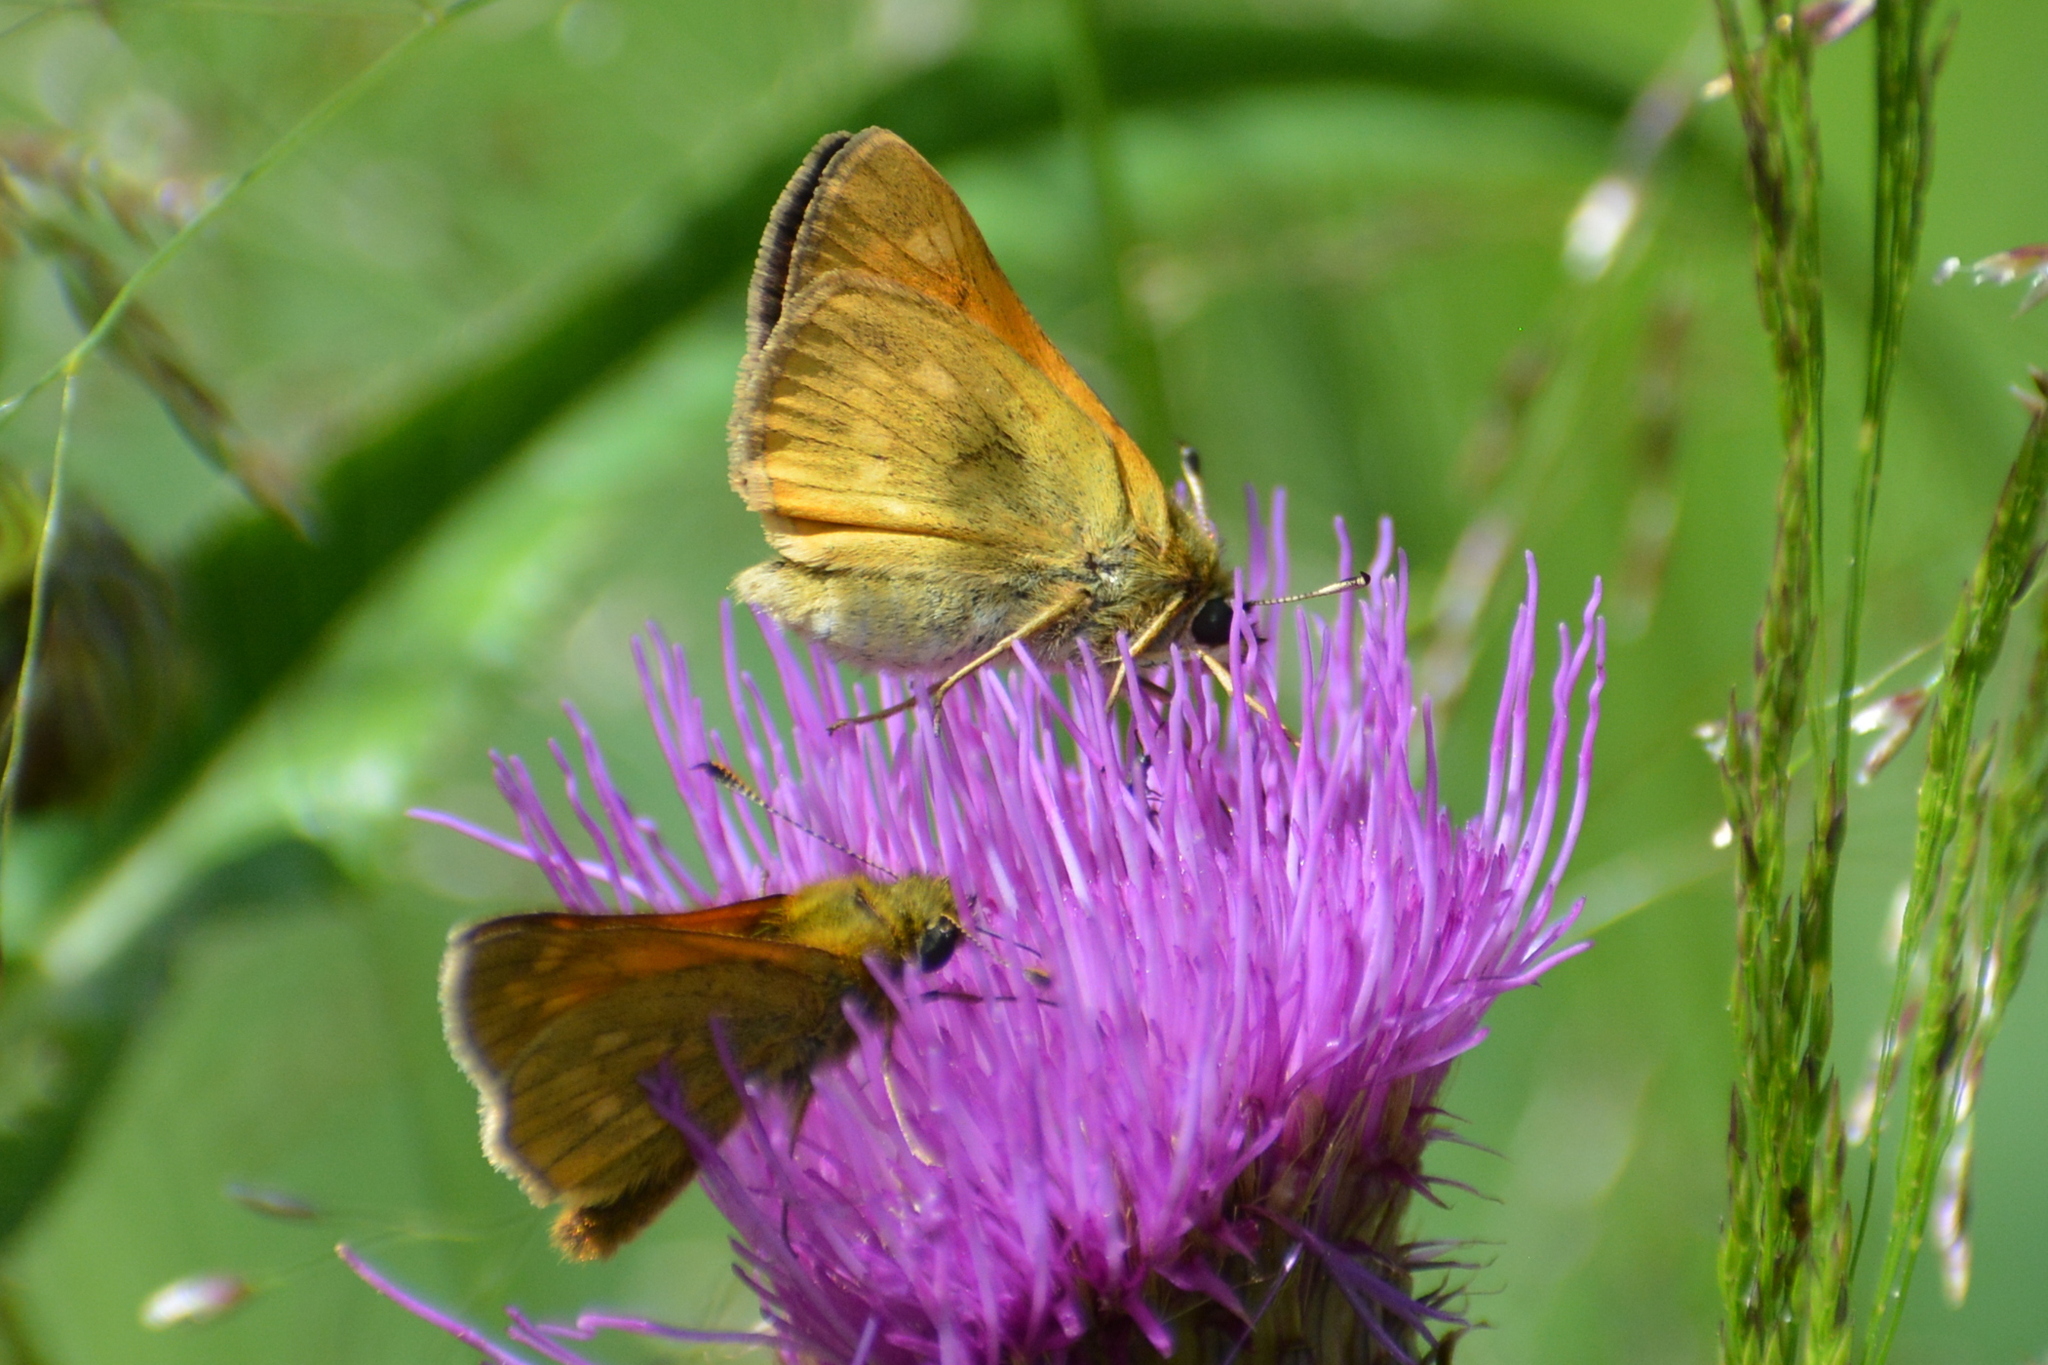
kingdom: Animalia
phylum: Arthropoda
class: Insecta
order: Lepidoptera
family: Hesperiidae
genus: Ochlodes
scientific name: Ochlodes venata
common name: Large skipper
